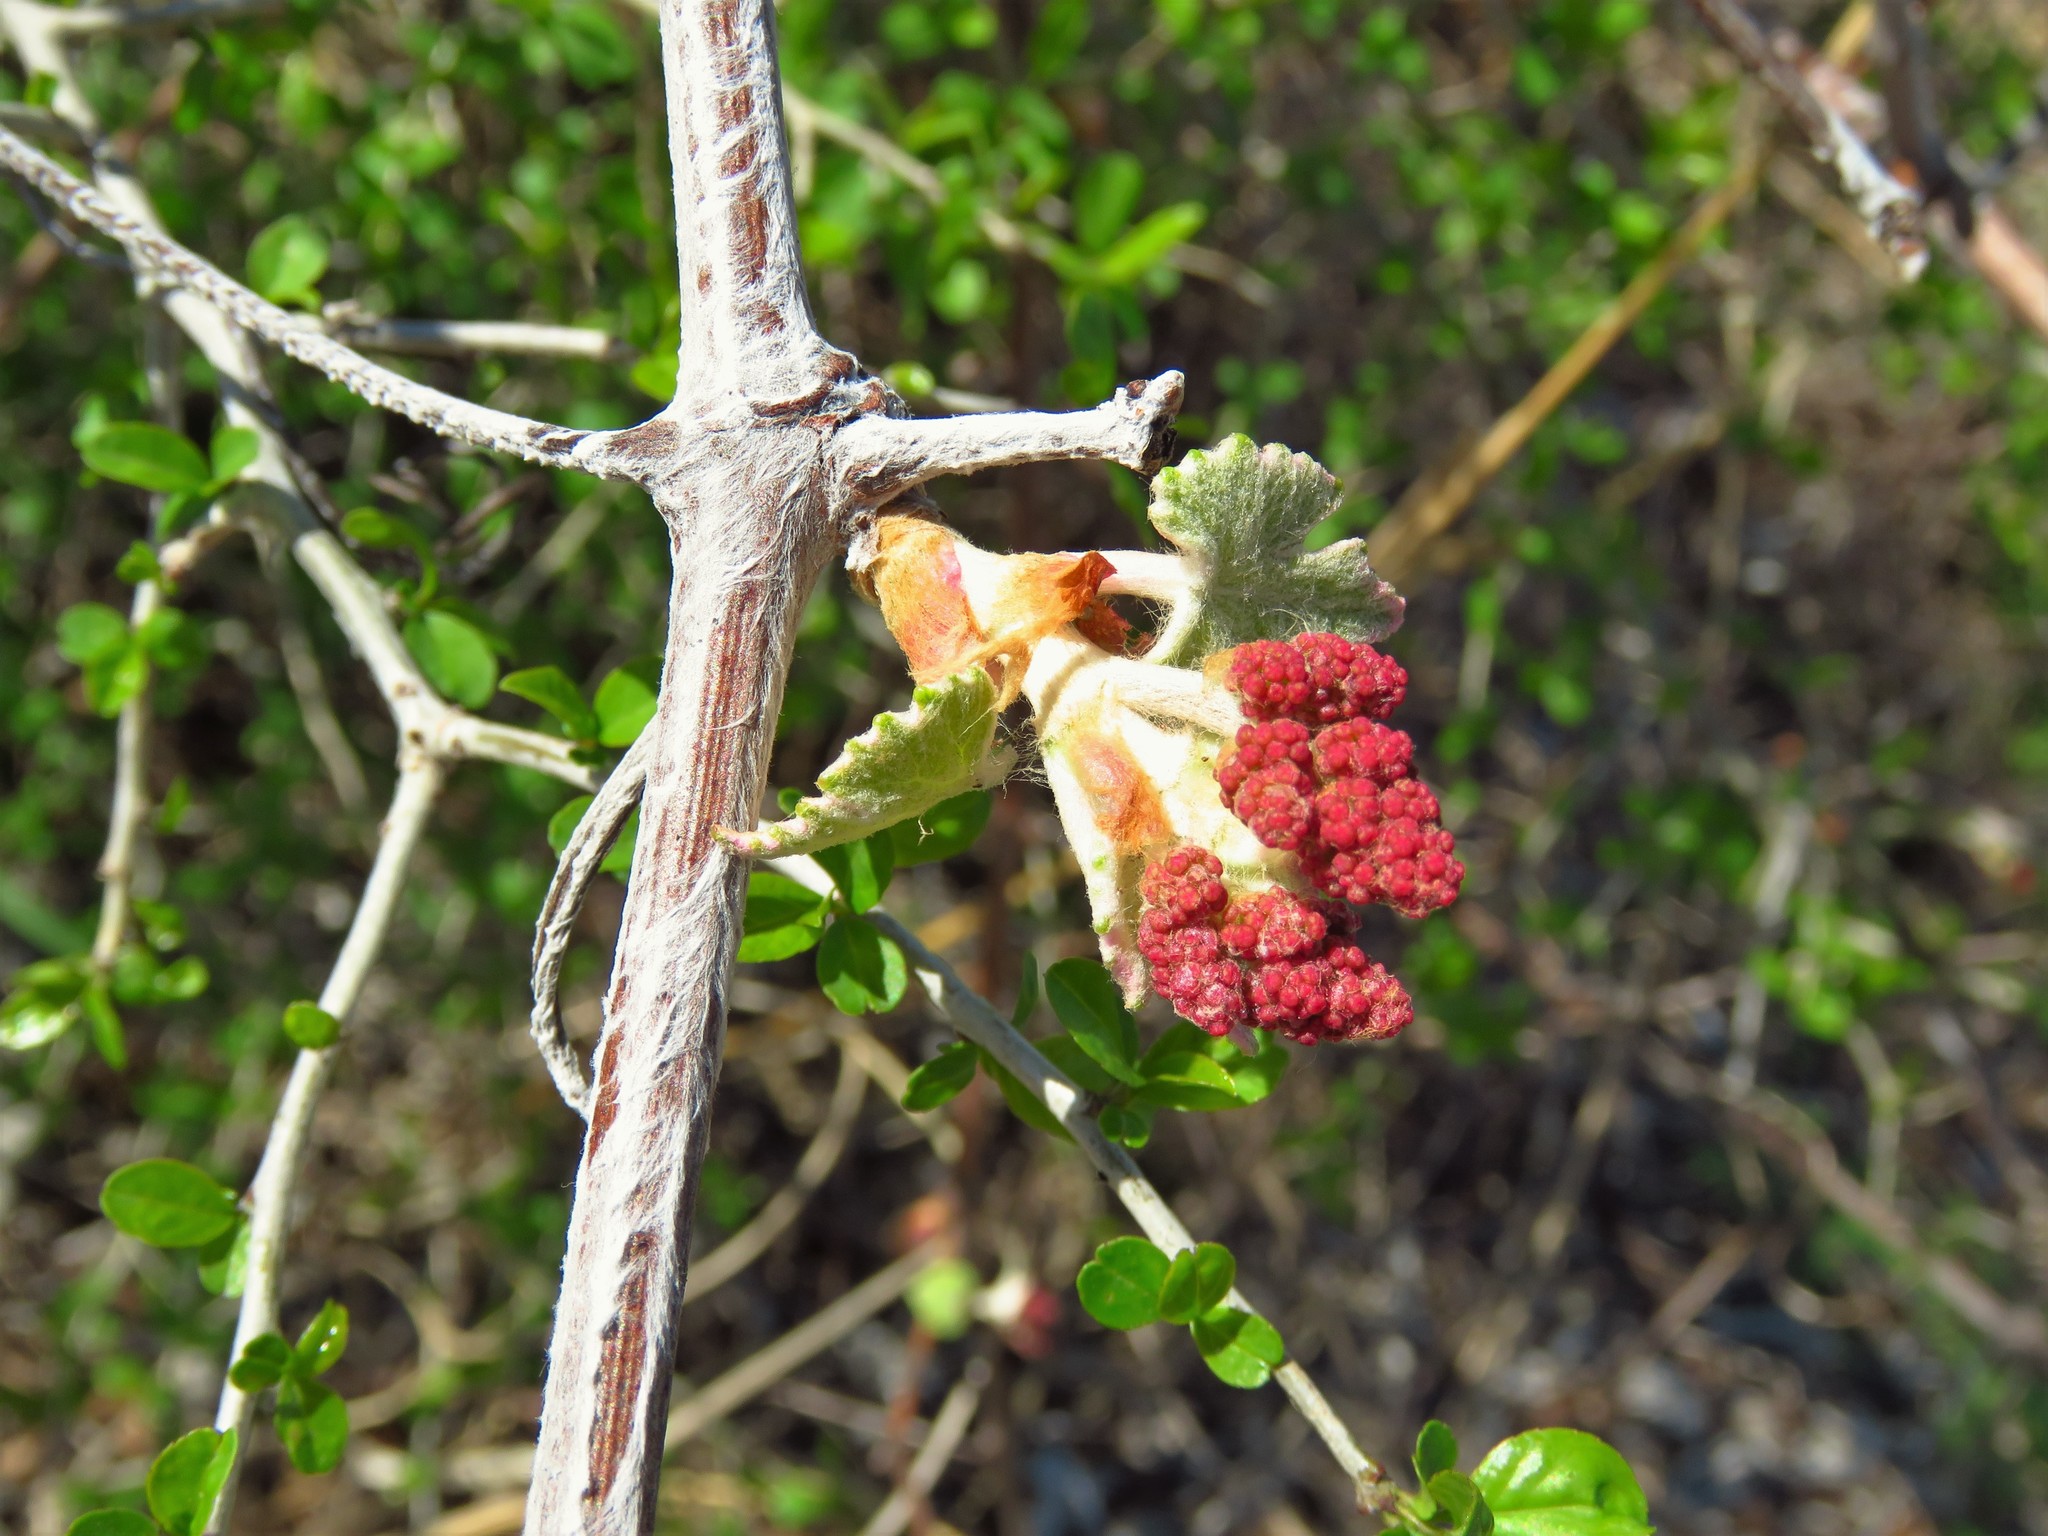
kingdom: Plantae
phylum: Tracheophyta
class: Magnoliopsida
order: Vitales
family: Vitaceae
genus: Vitis
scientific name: Vitis mustangensis
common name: Mustang grape
